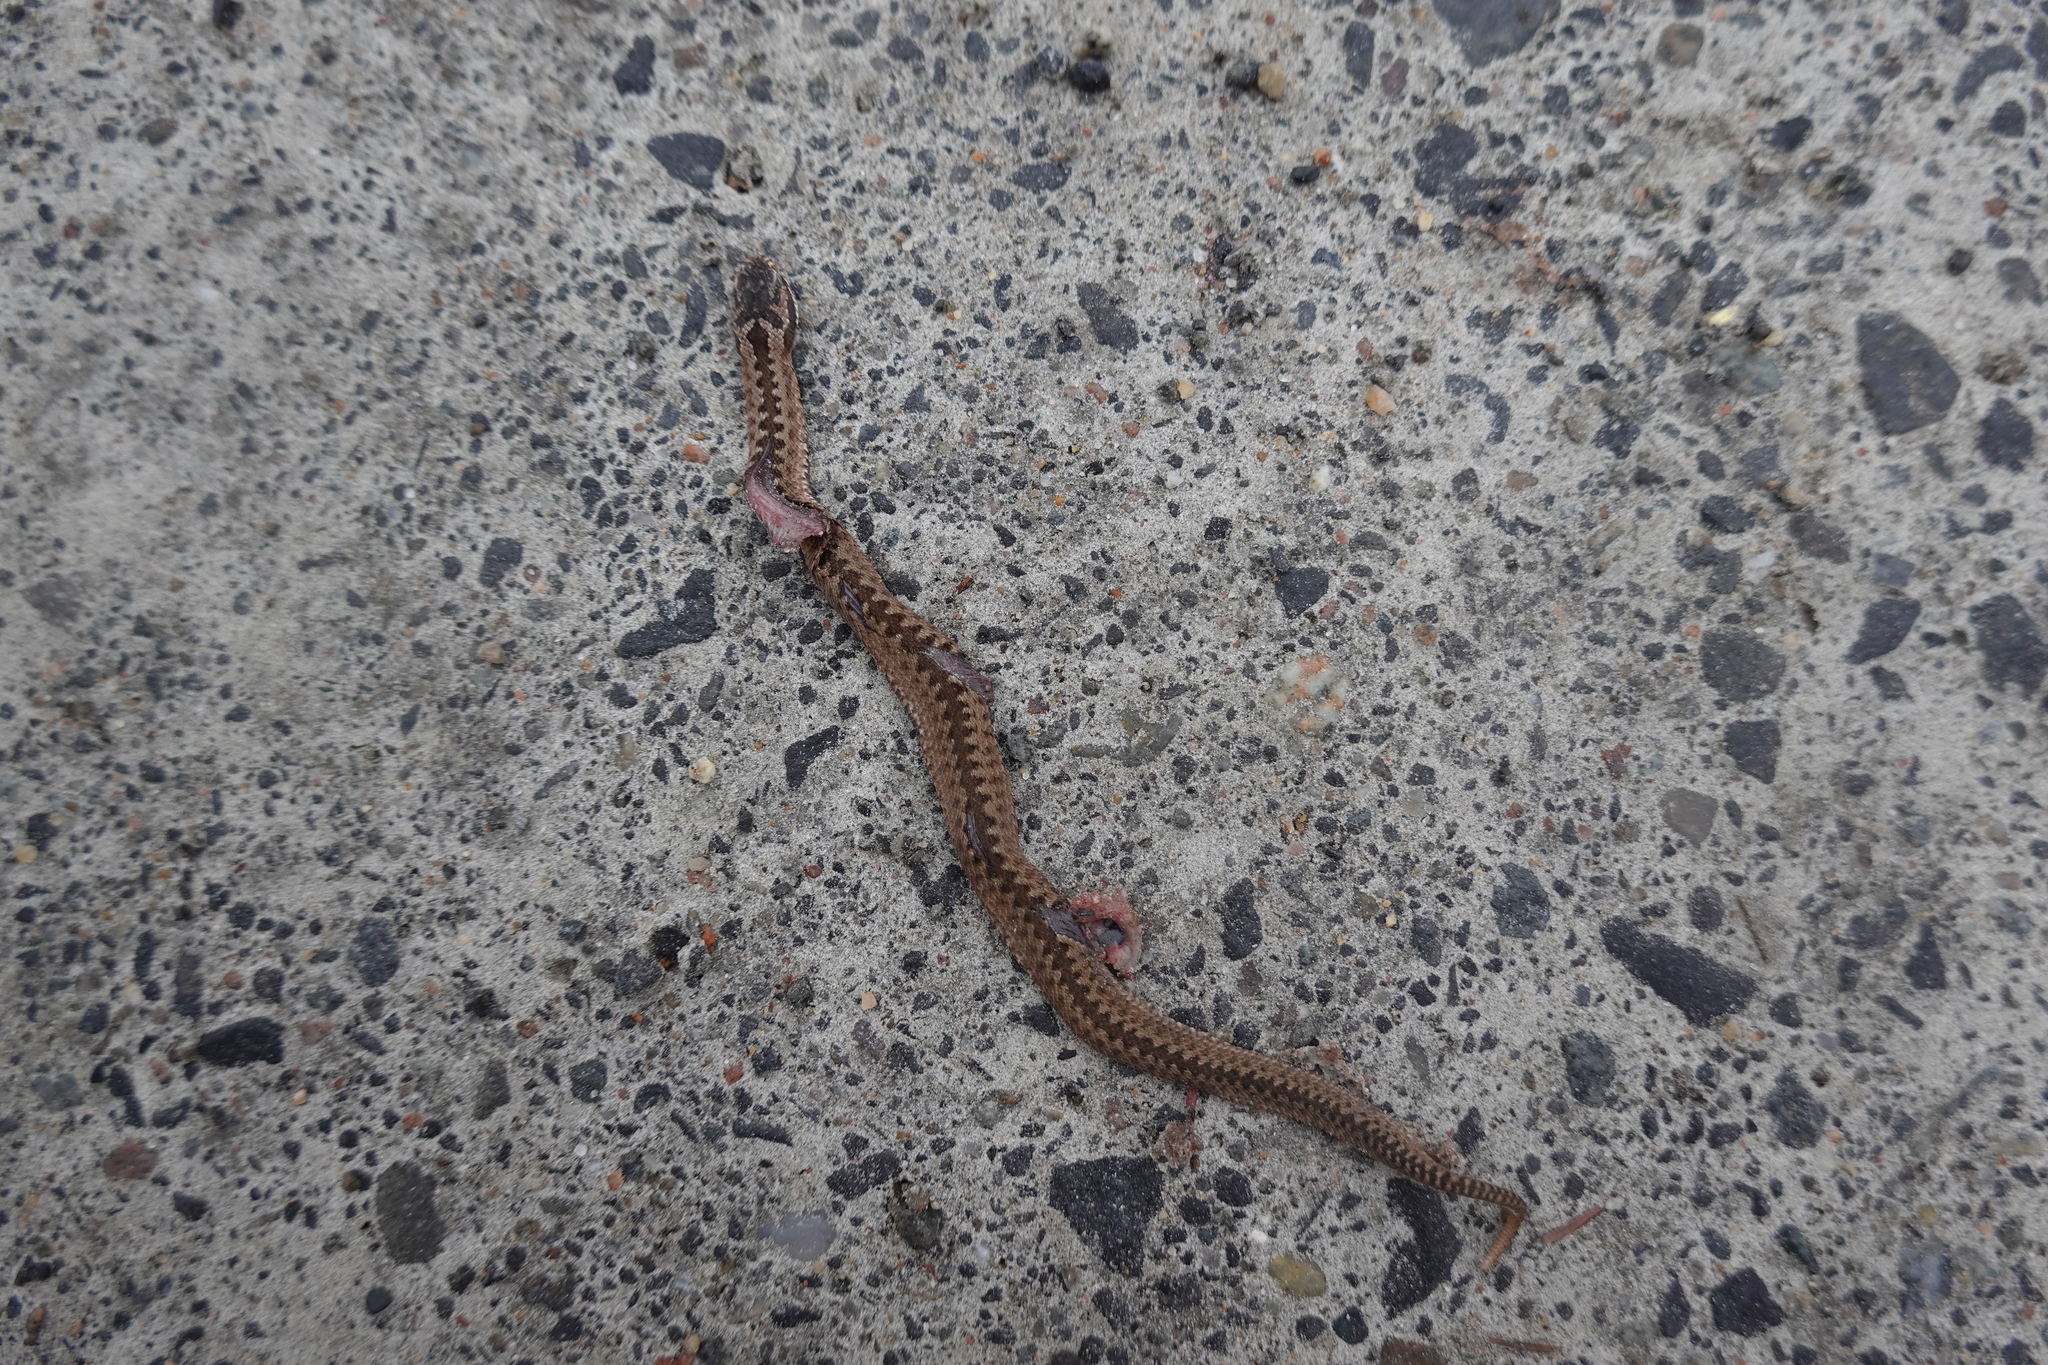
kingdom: Animalia
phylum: Chordata
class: Squamata
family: Viperidae
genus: Vipera
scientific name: Vipera berus
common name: Adder
